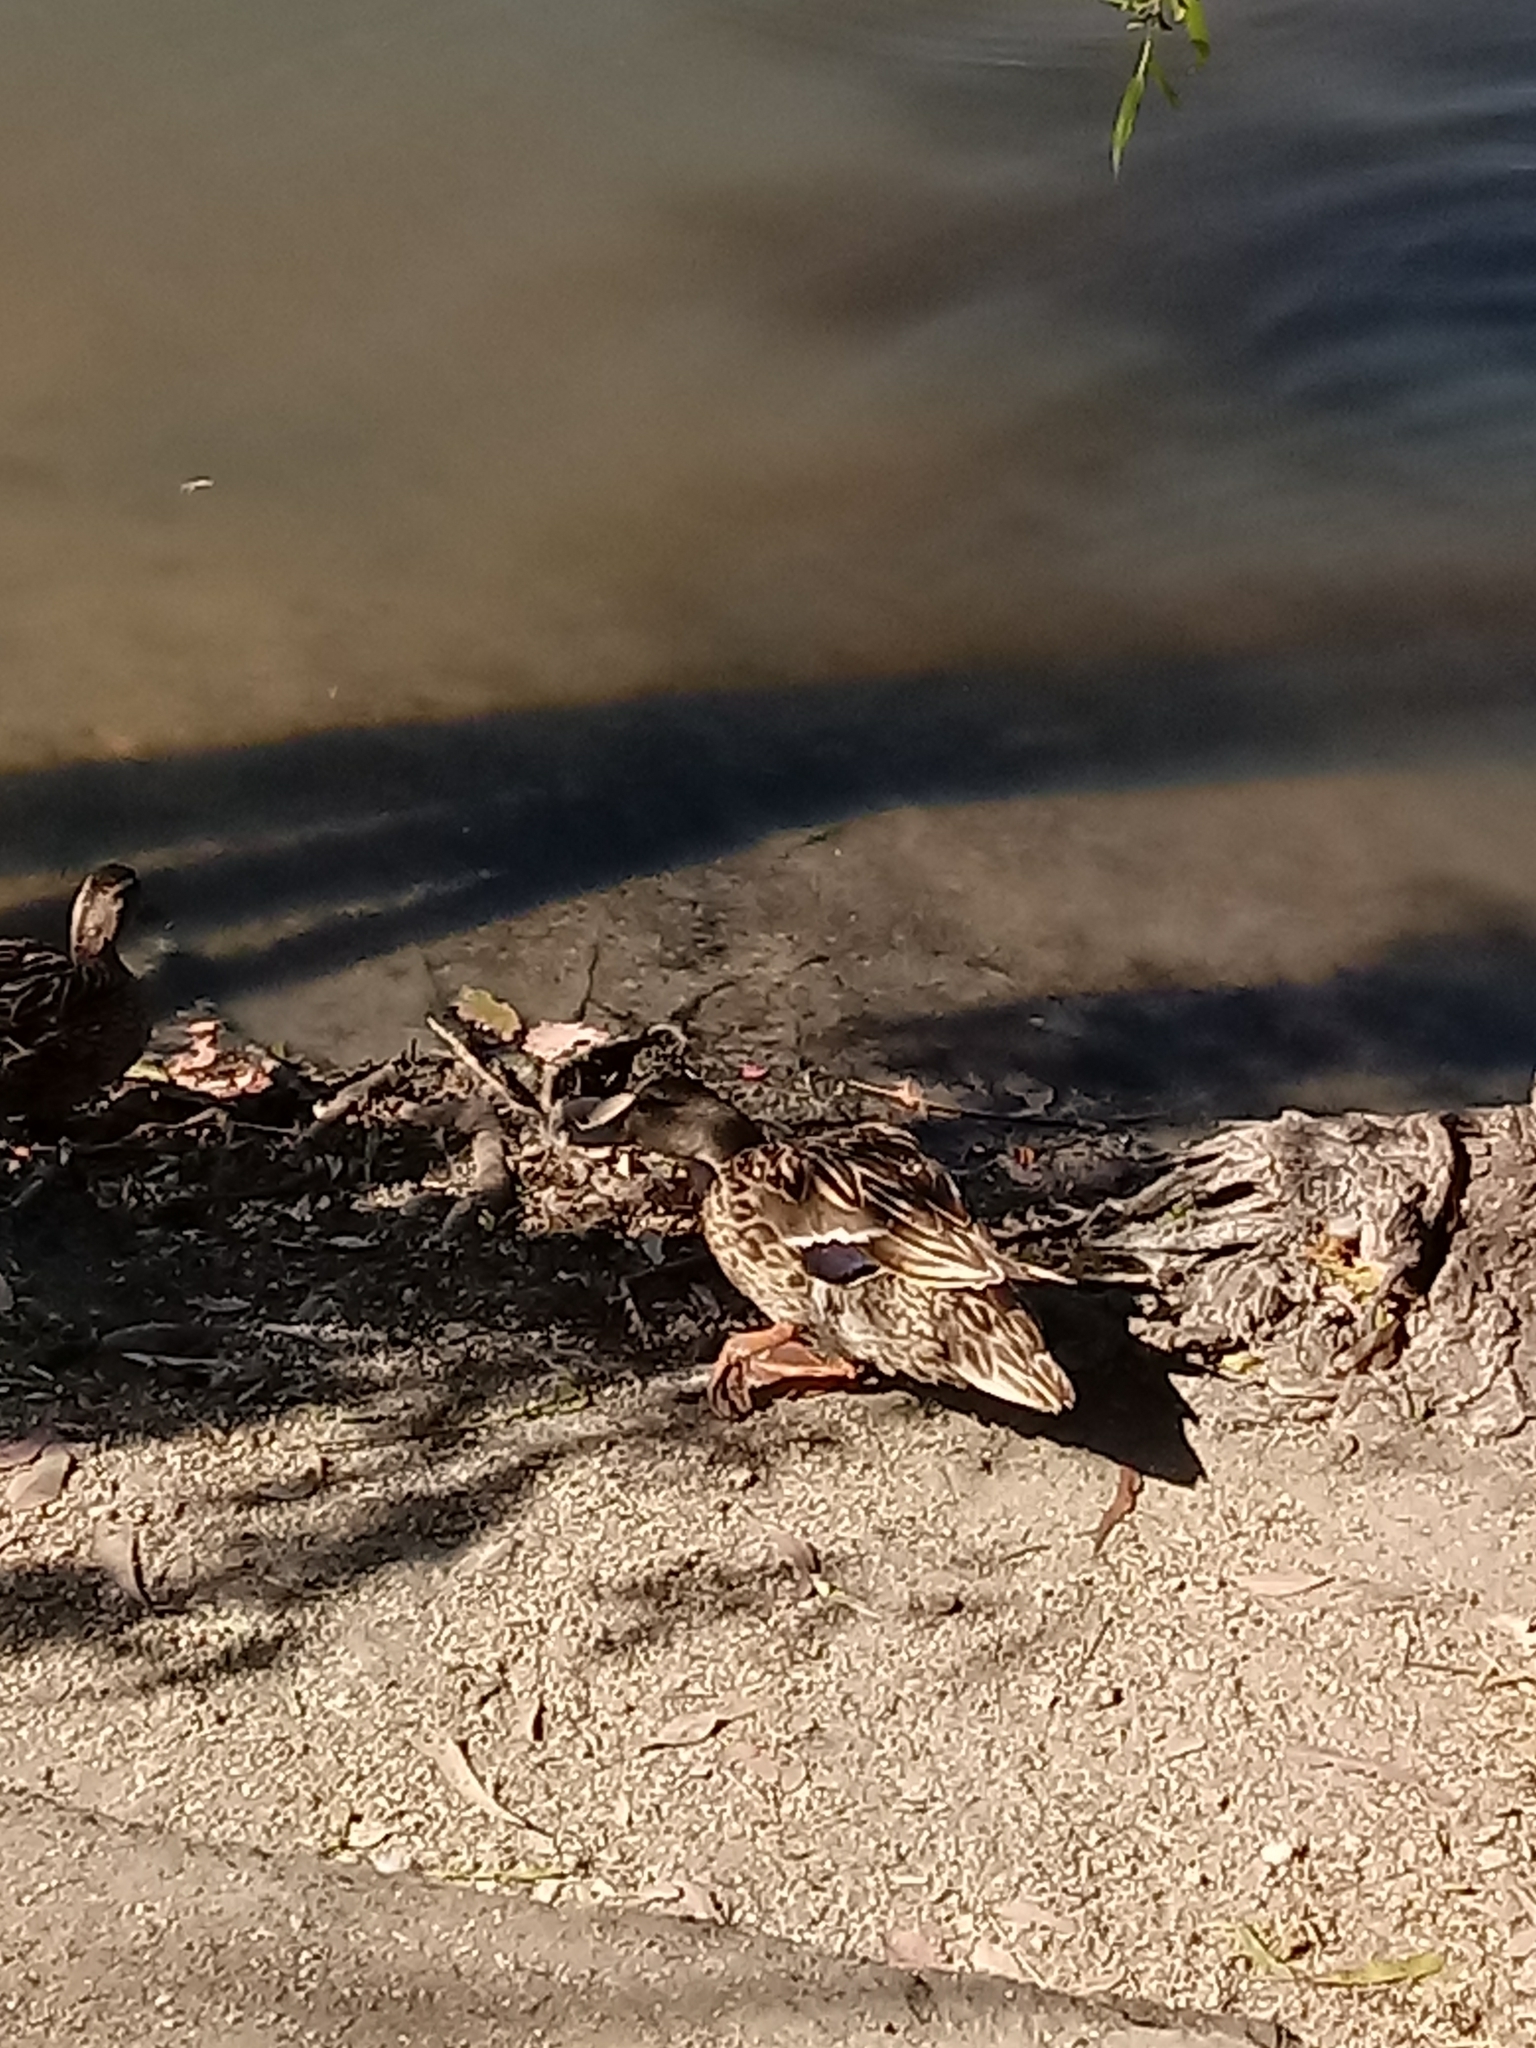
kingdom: Animalia
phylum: Chordata
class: Aves
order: Anseriformes
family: Anatidae
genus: Anas
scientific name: Anas platyrhynchos
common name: Mallard
